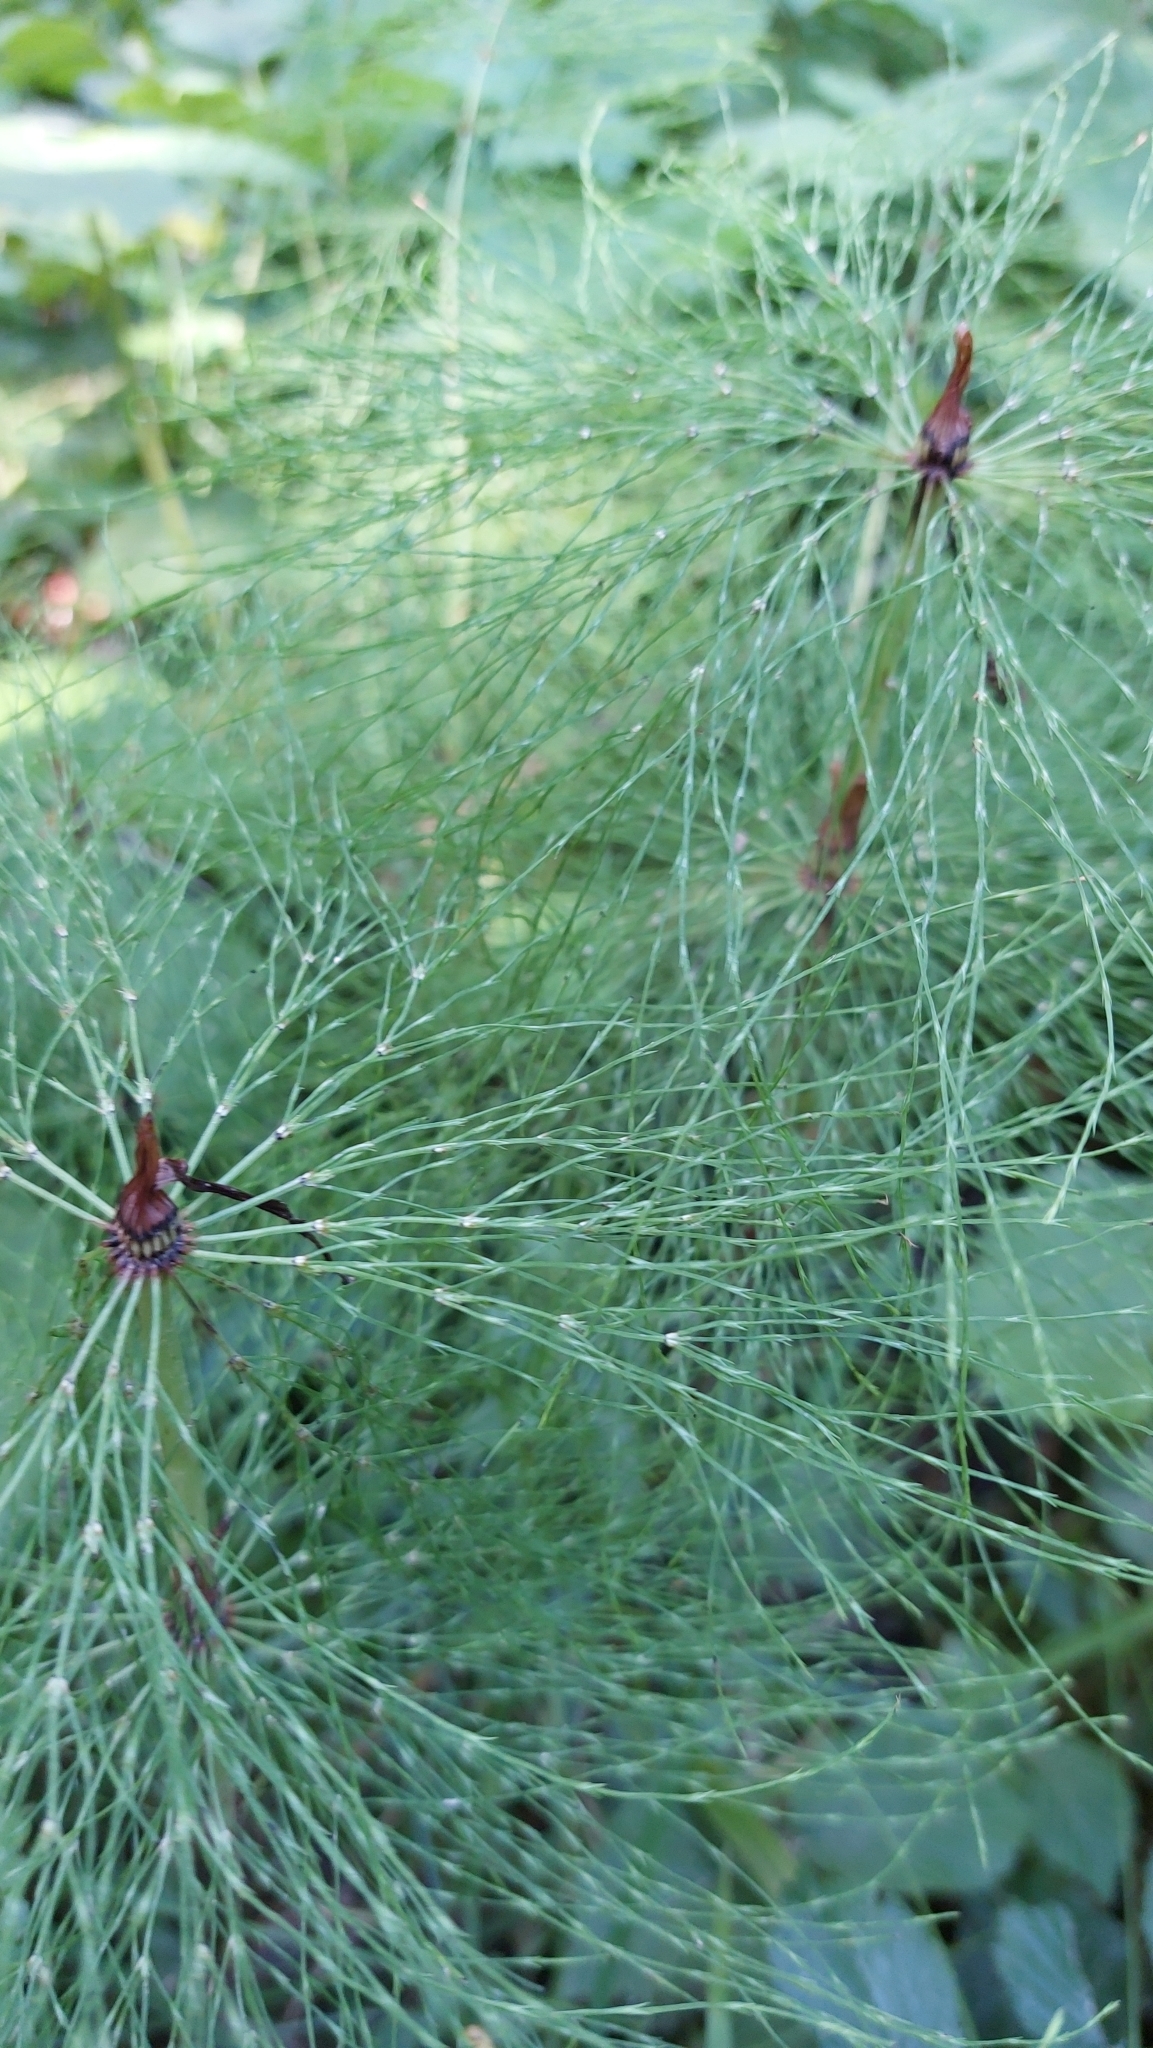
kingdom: Plantae
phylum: Tracheophyta
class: Polypodiopsida
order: Equisetales
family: Equisetaceae
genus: Equisetum
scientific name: Equisetum sylvaticum
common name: Wood horsetail
